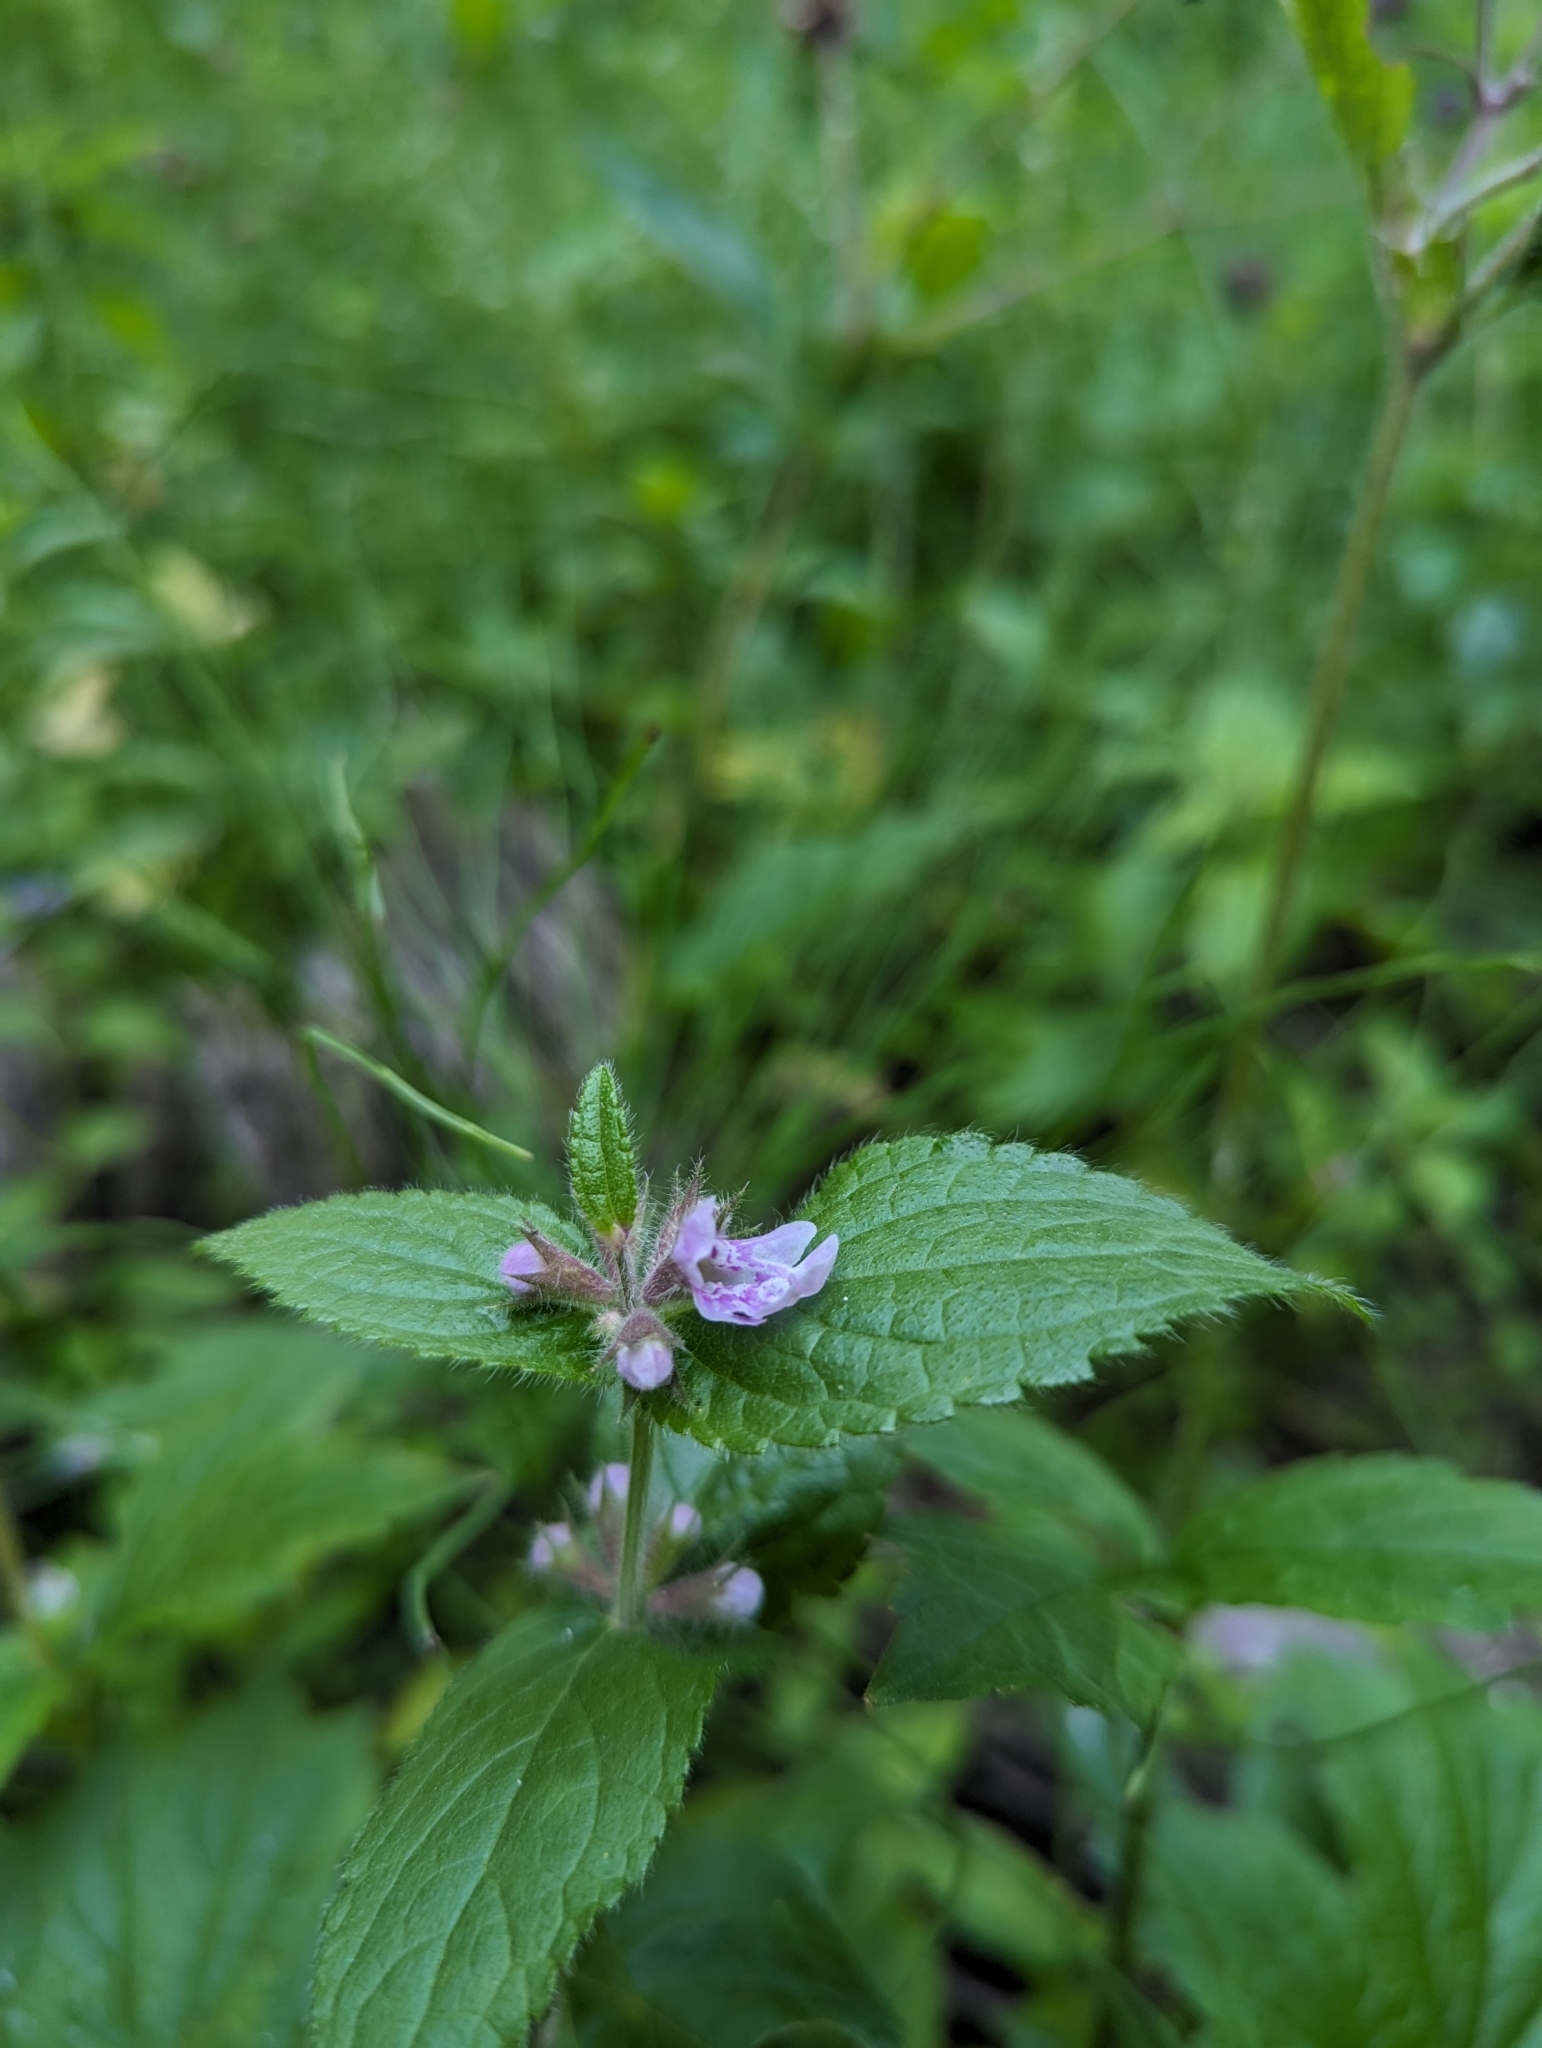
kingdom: Plantae
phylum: Tracheophyta
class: Magnoliopsida
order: Lamiales
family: Lamiaceae
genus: Stachys
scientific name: Stachys pilosa
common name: Hairy hedge-nettle
